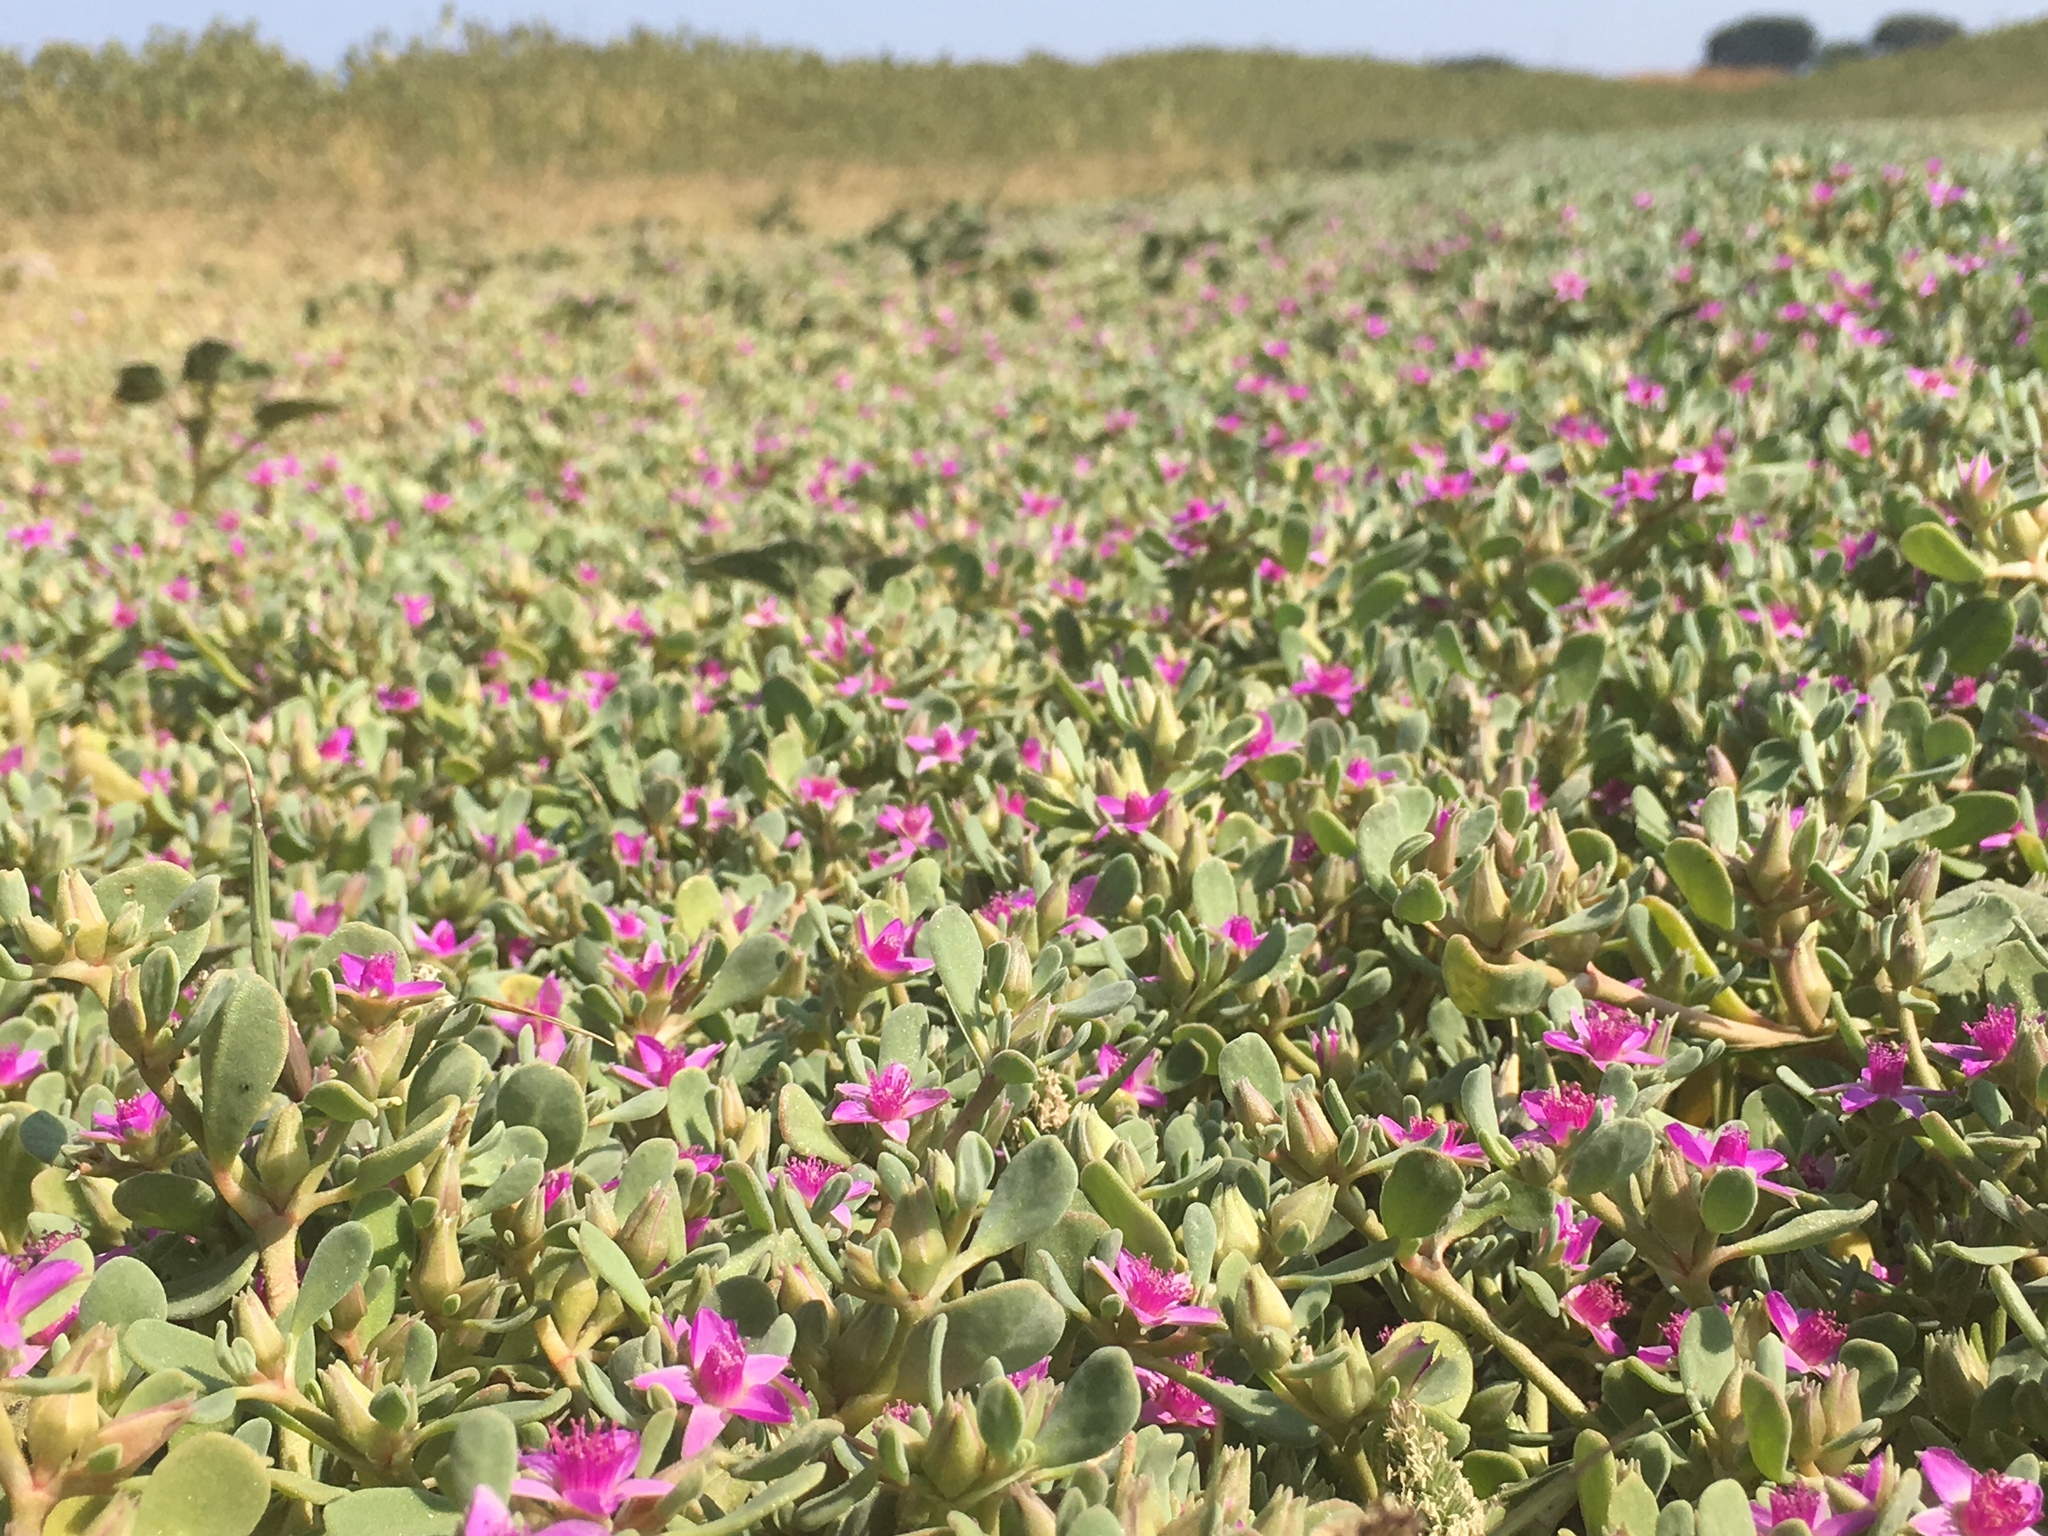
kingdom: Plantae
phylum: Tracheophyta
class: Magnoliopsida
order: Caryophyllales
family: Aizoaceae
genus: Sesuvium
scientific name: Sesuvium revolutifolium
